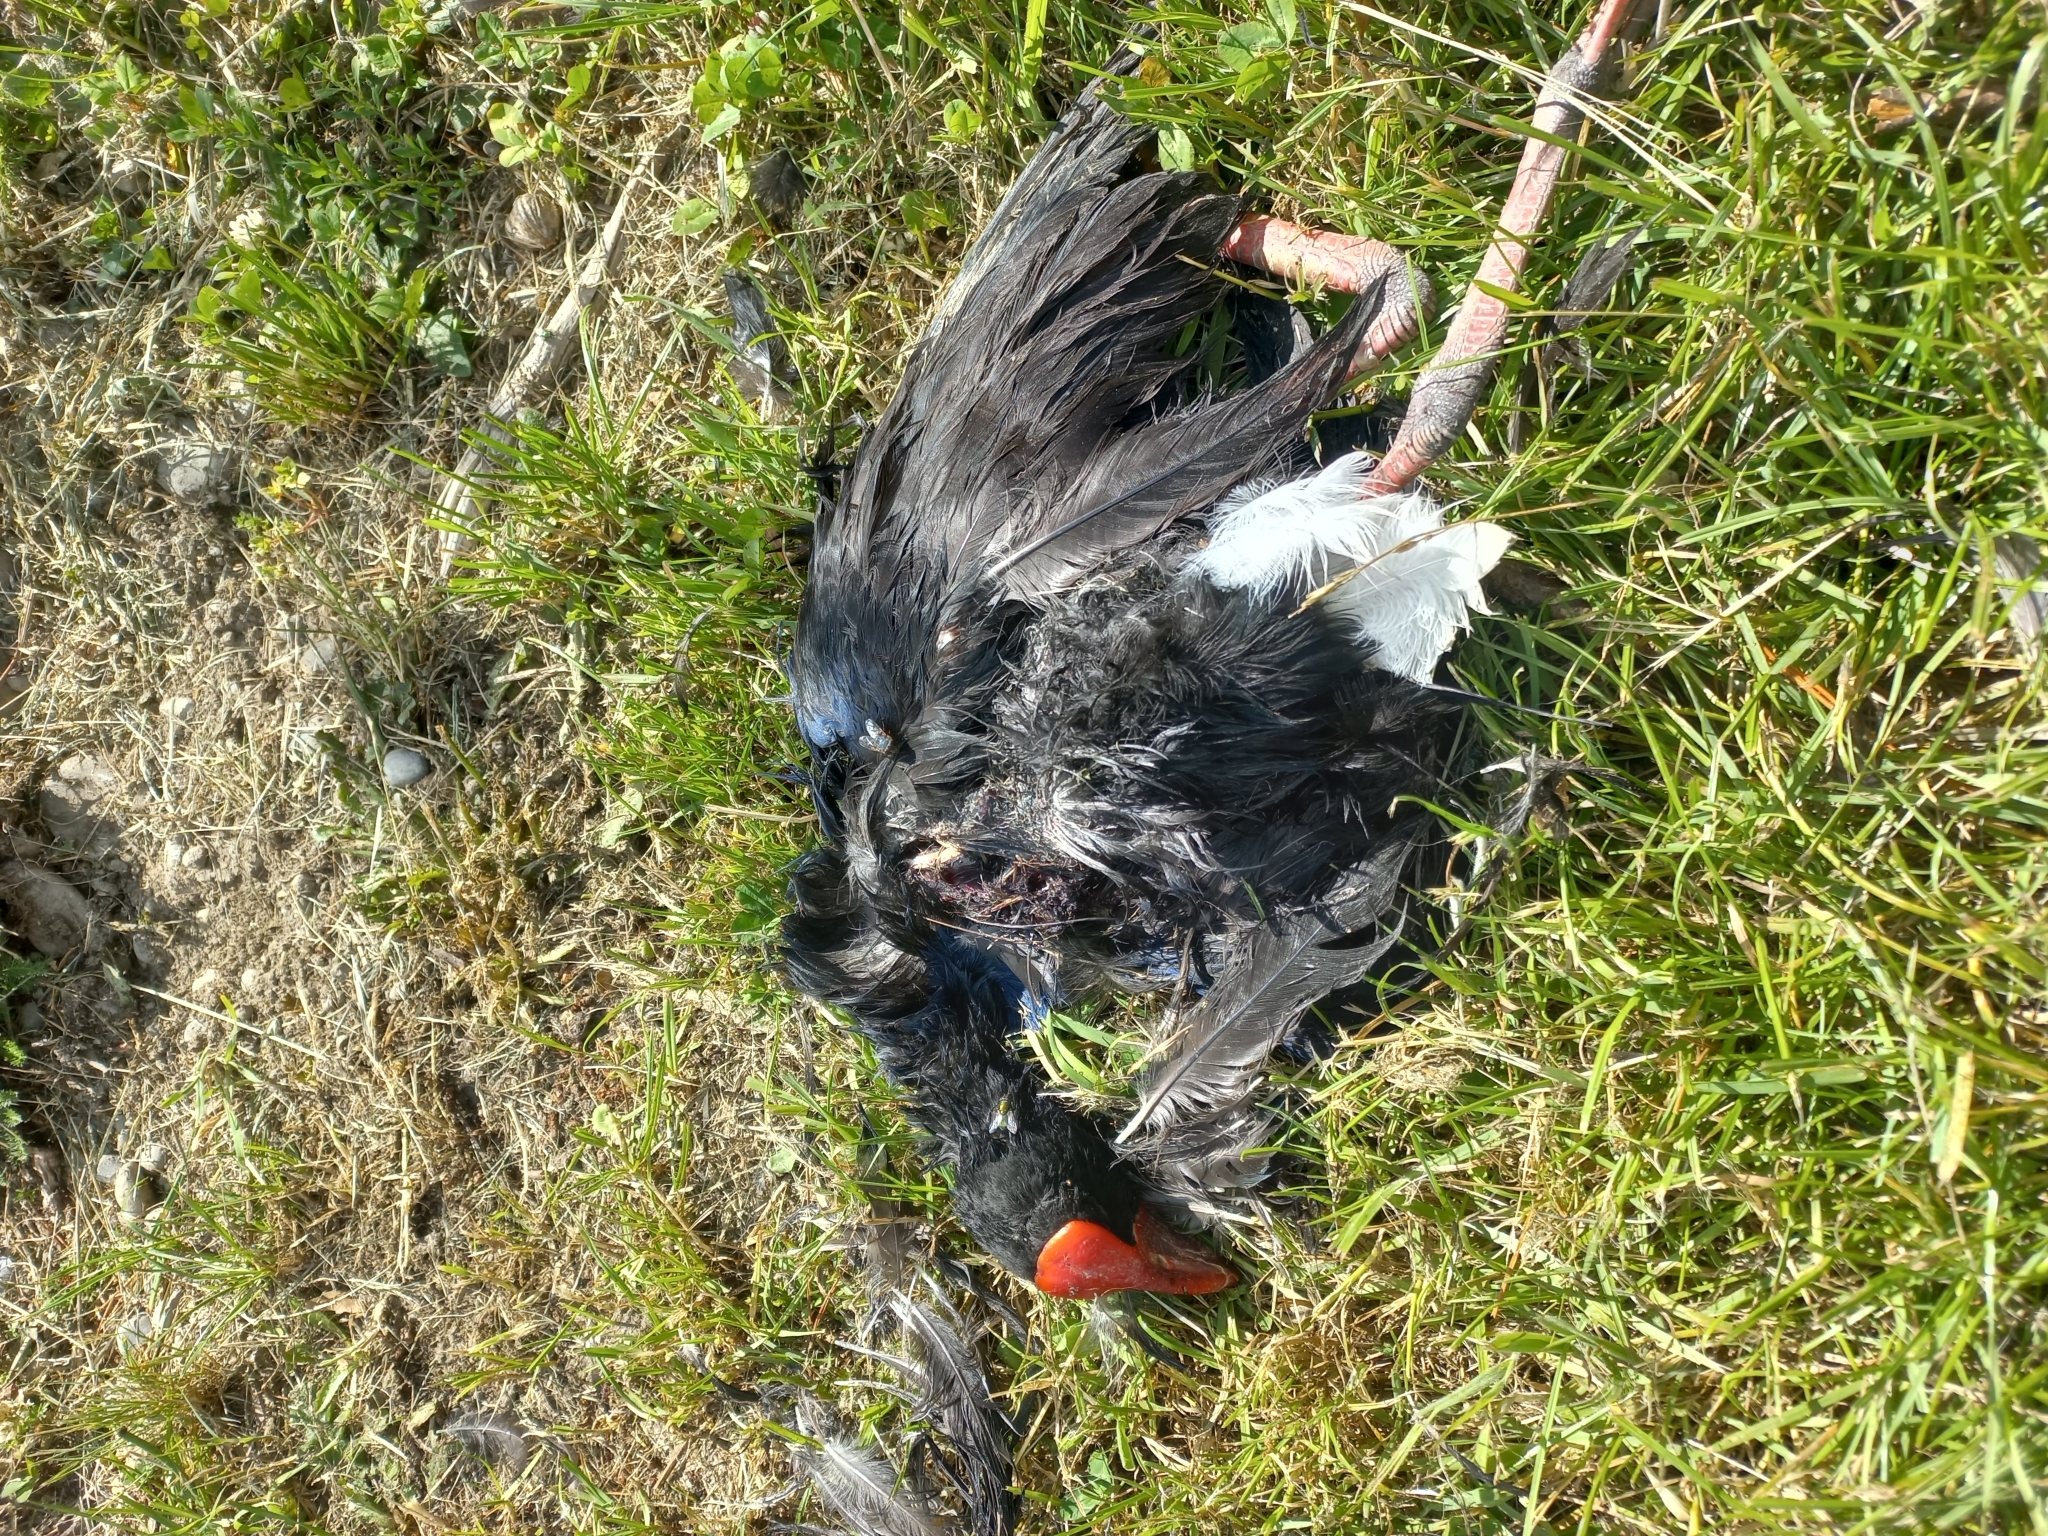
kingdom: Animalia
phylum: Chordata
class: Aves
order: Gruiformes
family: Rallidae
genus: Porphyrio
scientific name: Porphyrio melanotus
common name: Australasian swamphen
